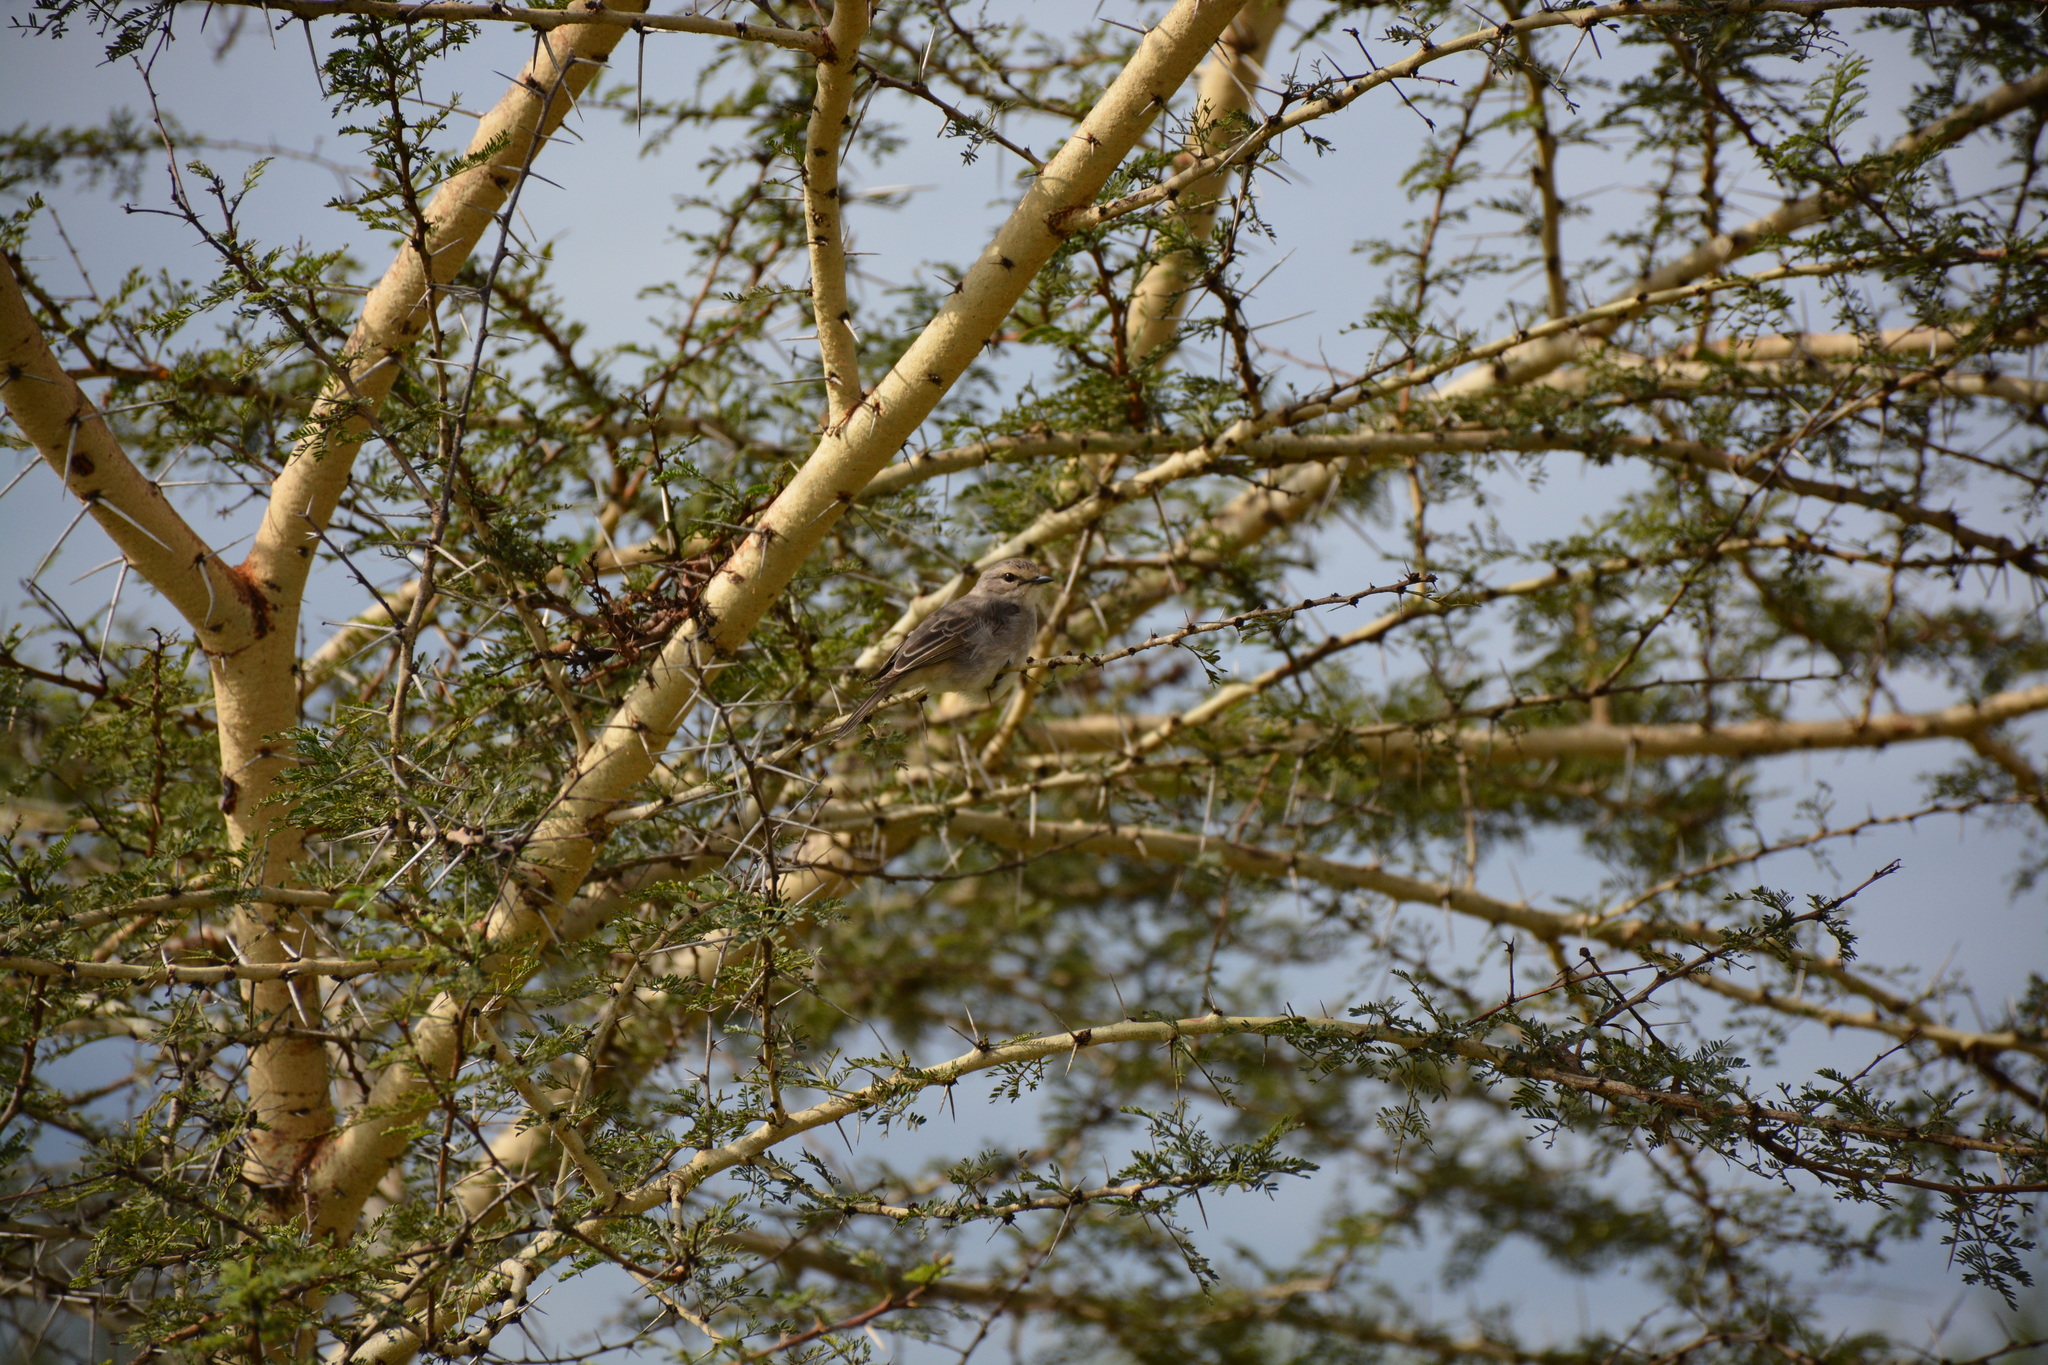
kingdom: Animalia
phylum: Chordata
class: Aves
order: Passeriformes
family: Muscicapidae
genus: Bradornis
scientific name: Bradornis microrhynchus
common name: African grey flycatcher
